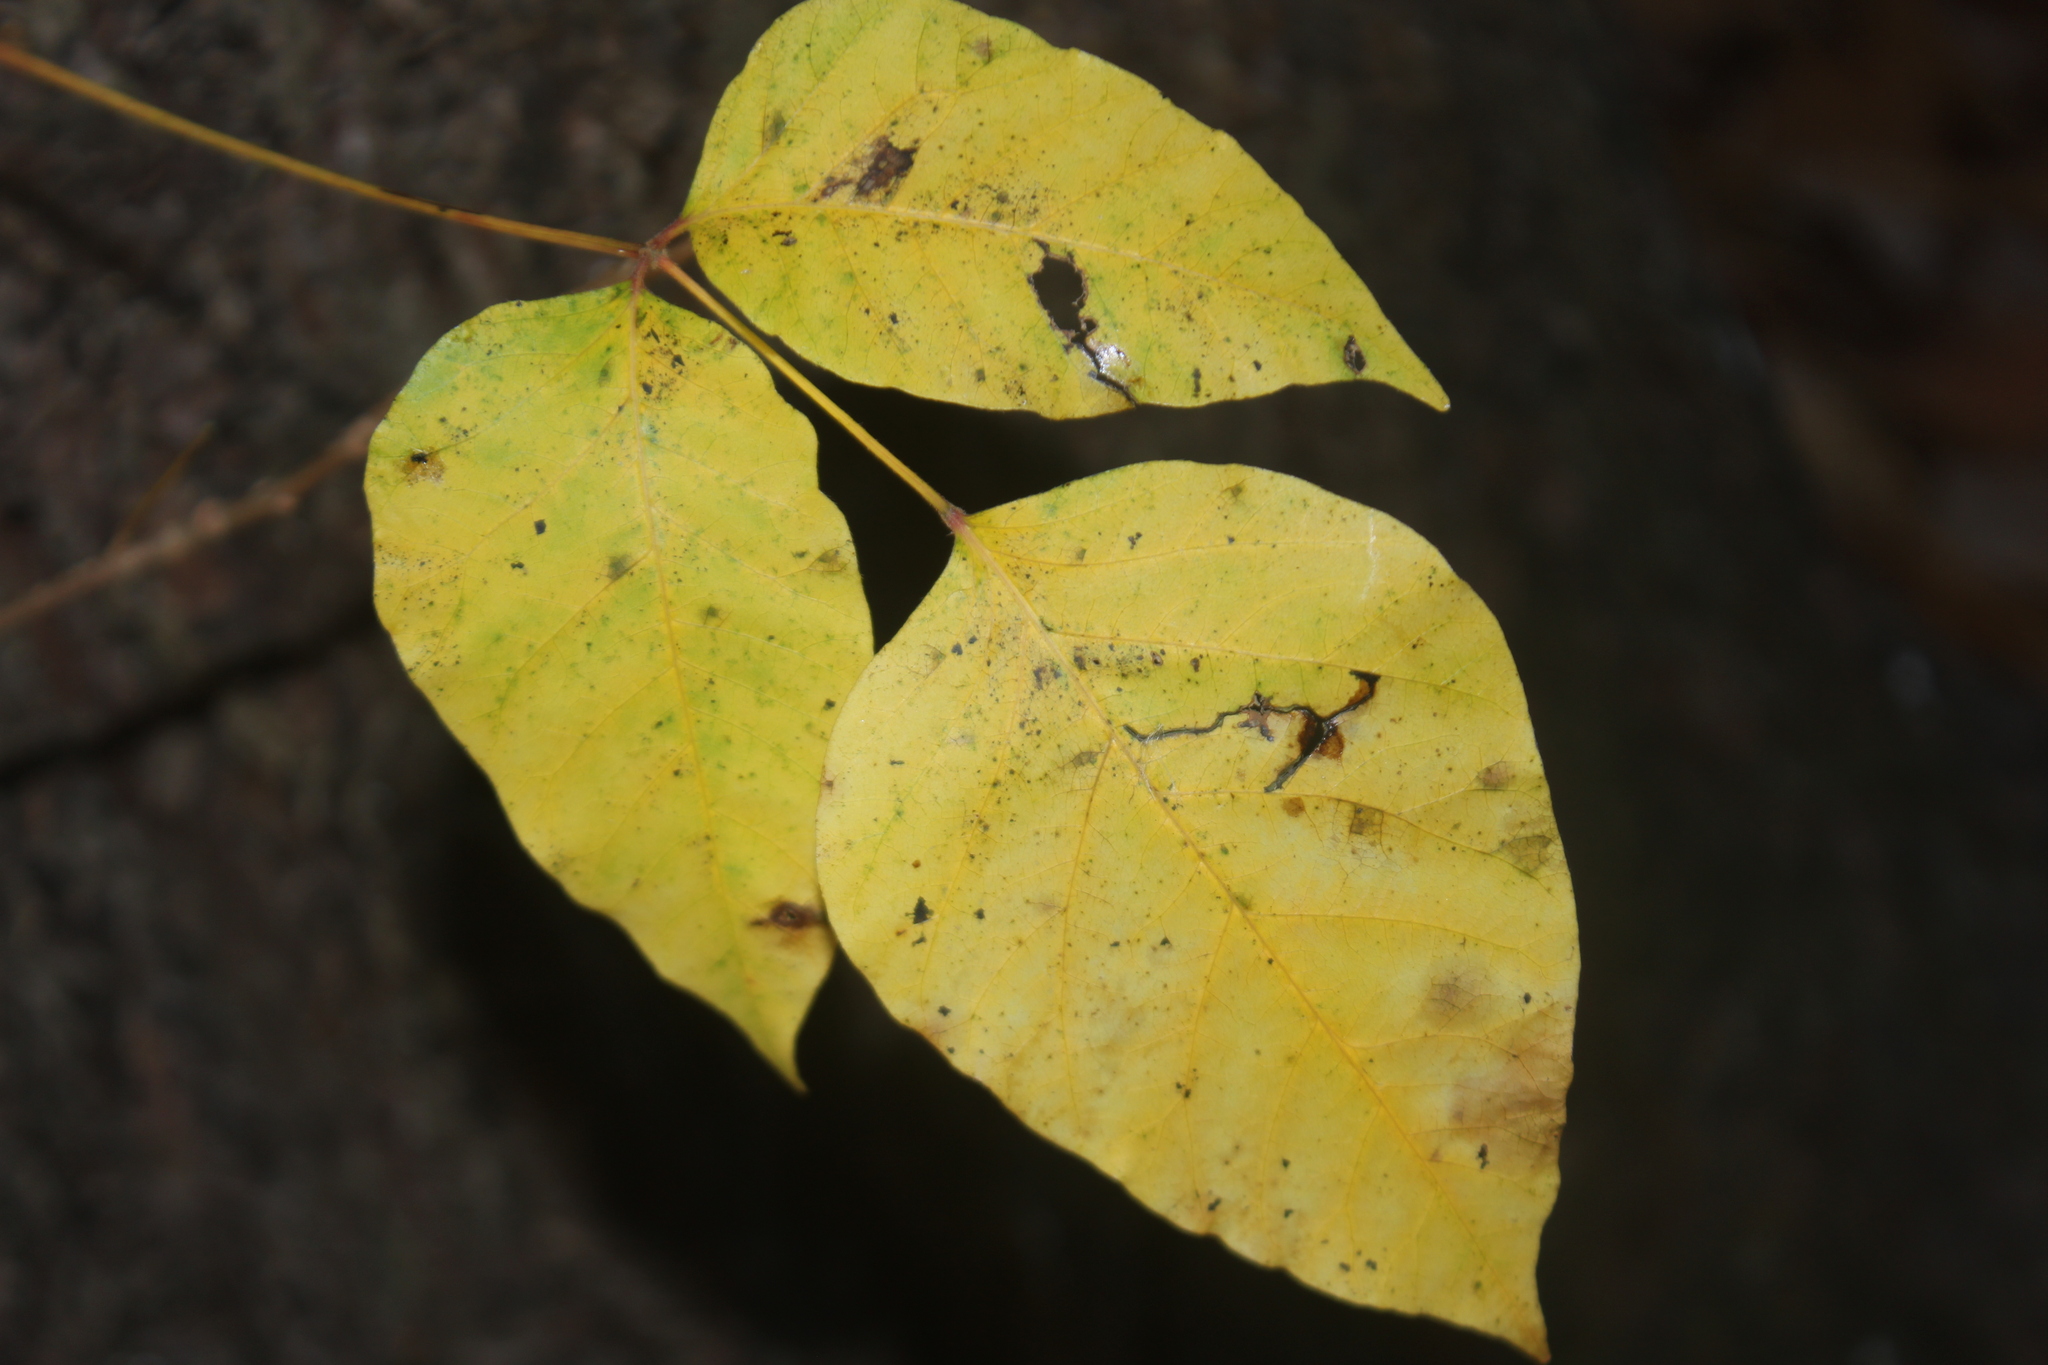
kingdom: Plantae
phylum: Tracheophyta
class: Magnoliopsida
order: Sapindales
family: Anacardiaceae
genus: Toxicodendron
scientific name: Toxicodendron radicans
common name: Poison ivy
